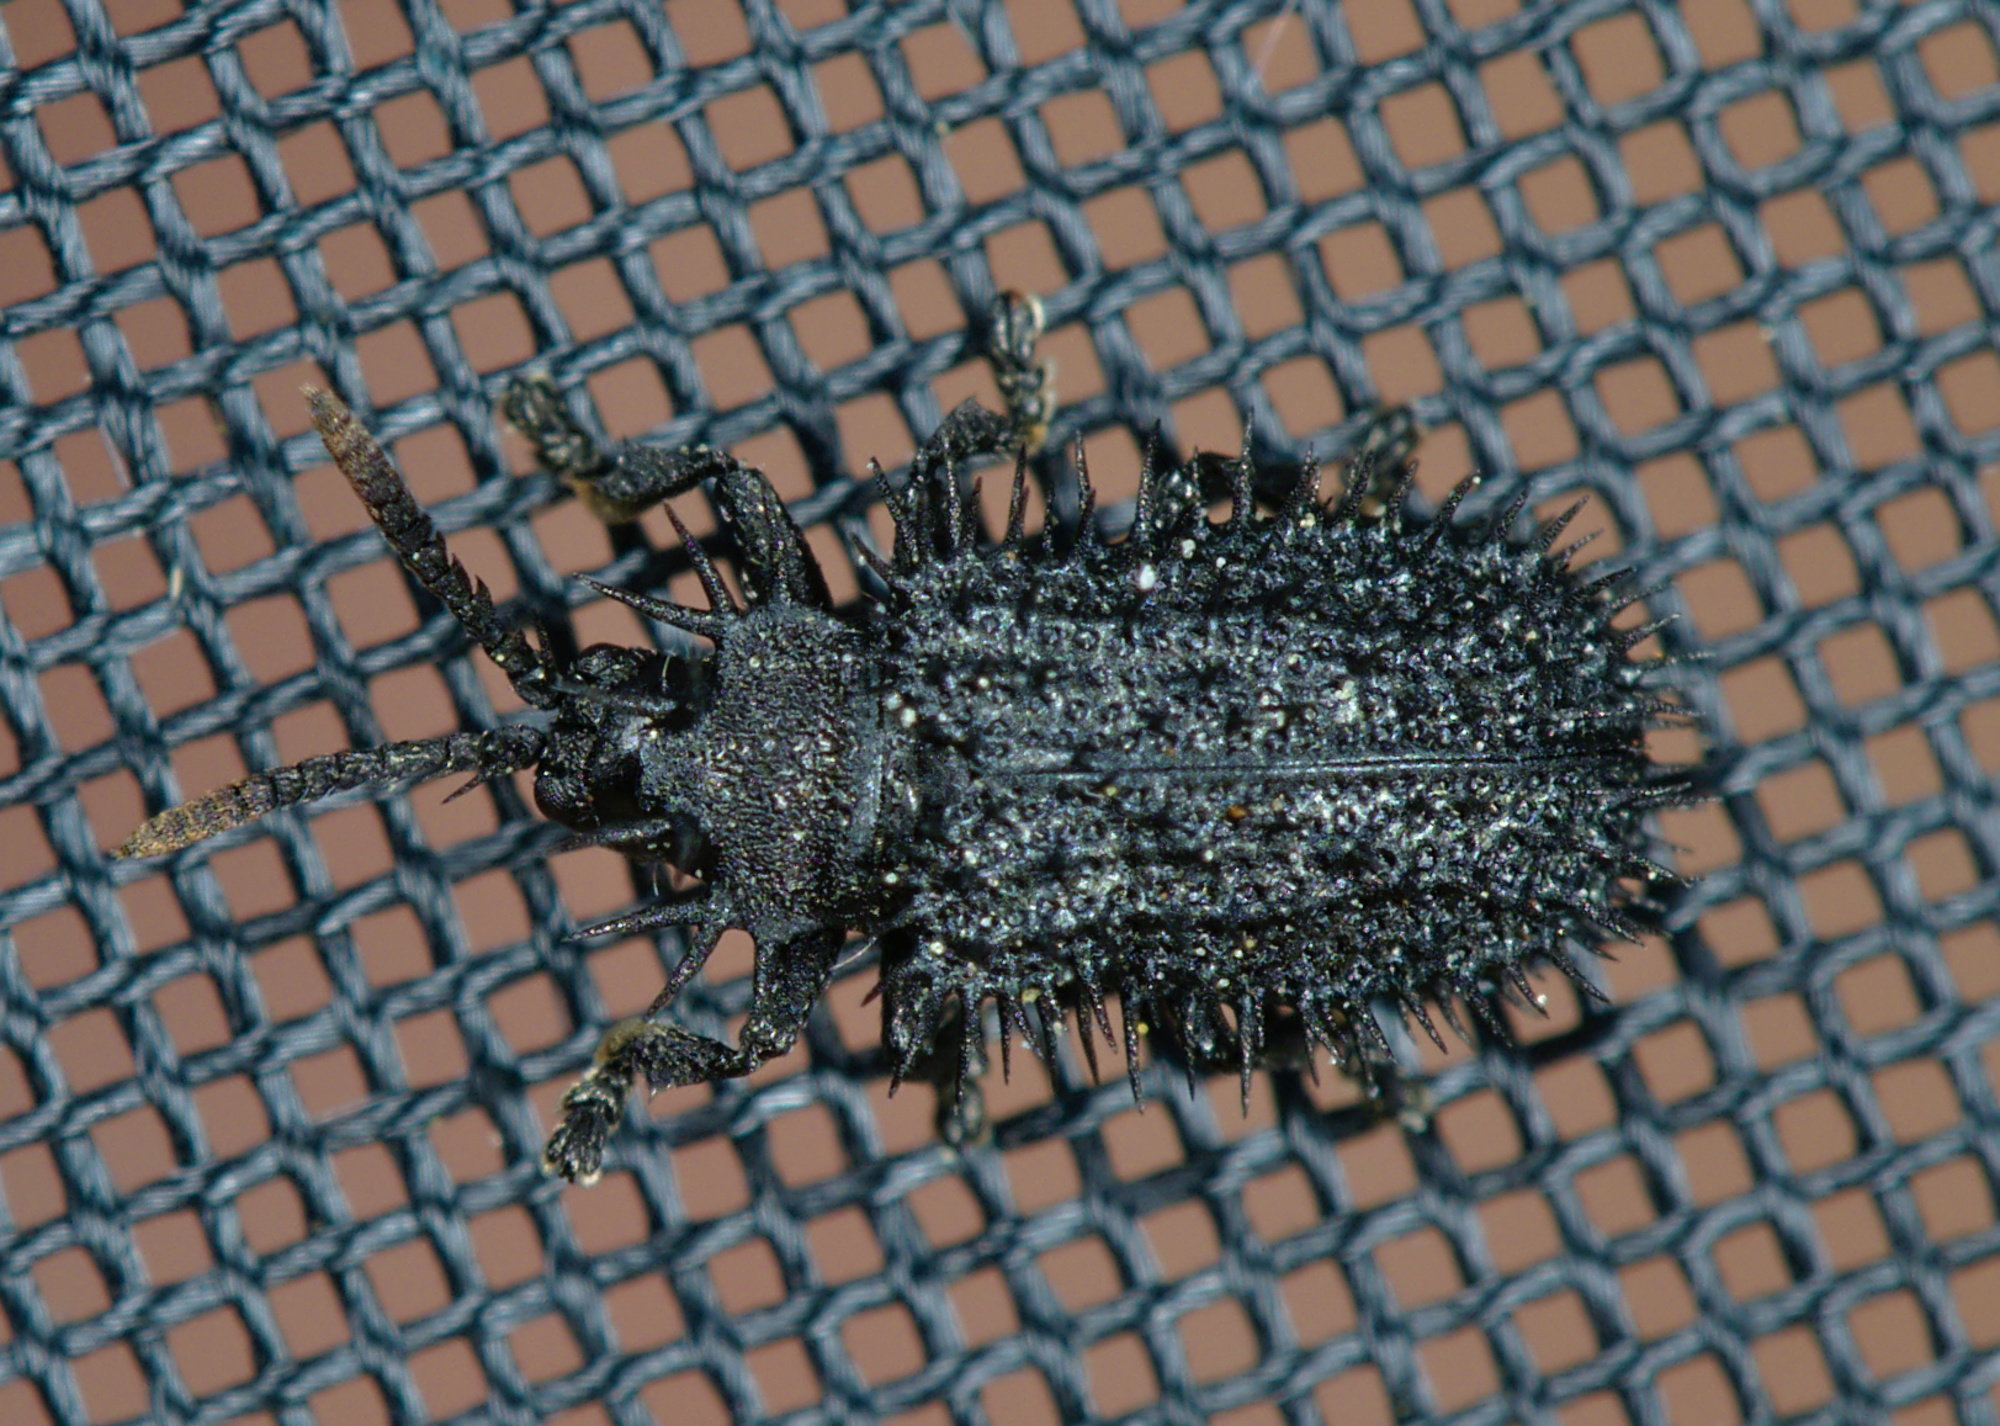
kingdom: Animalia
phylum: Arthropoda
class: Insecta
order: Coleoptera
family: Chrysomelidae
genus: Hispa
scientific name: Hispa atra
